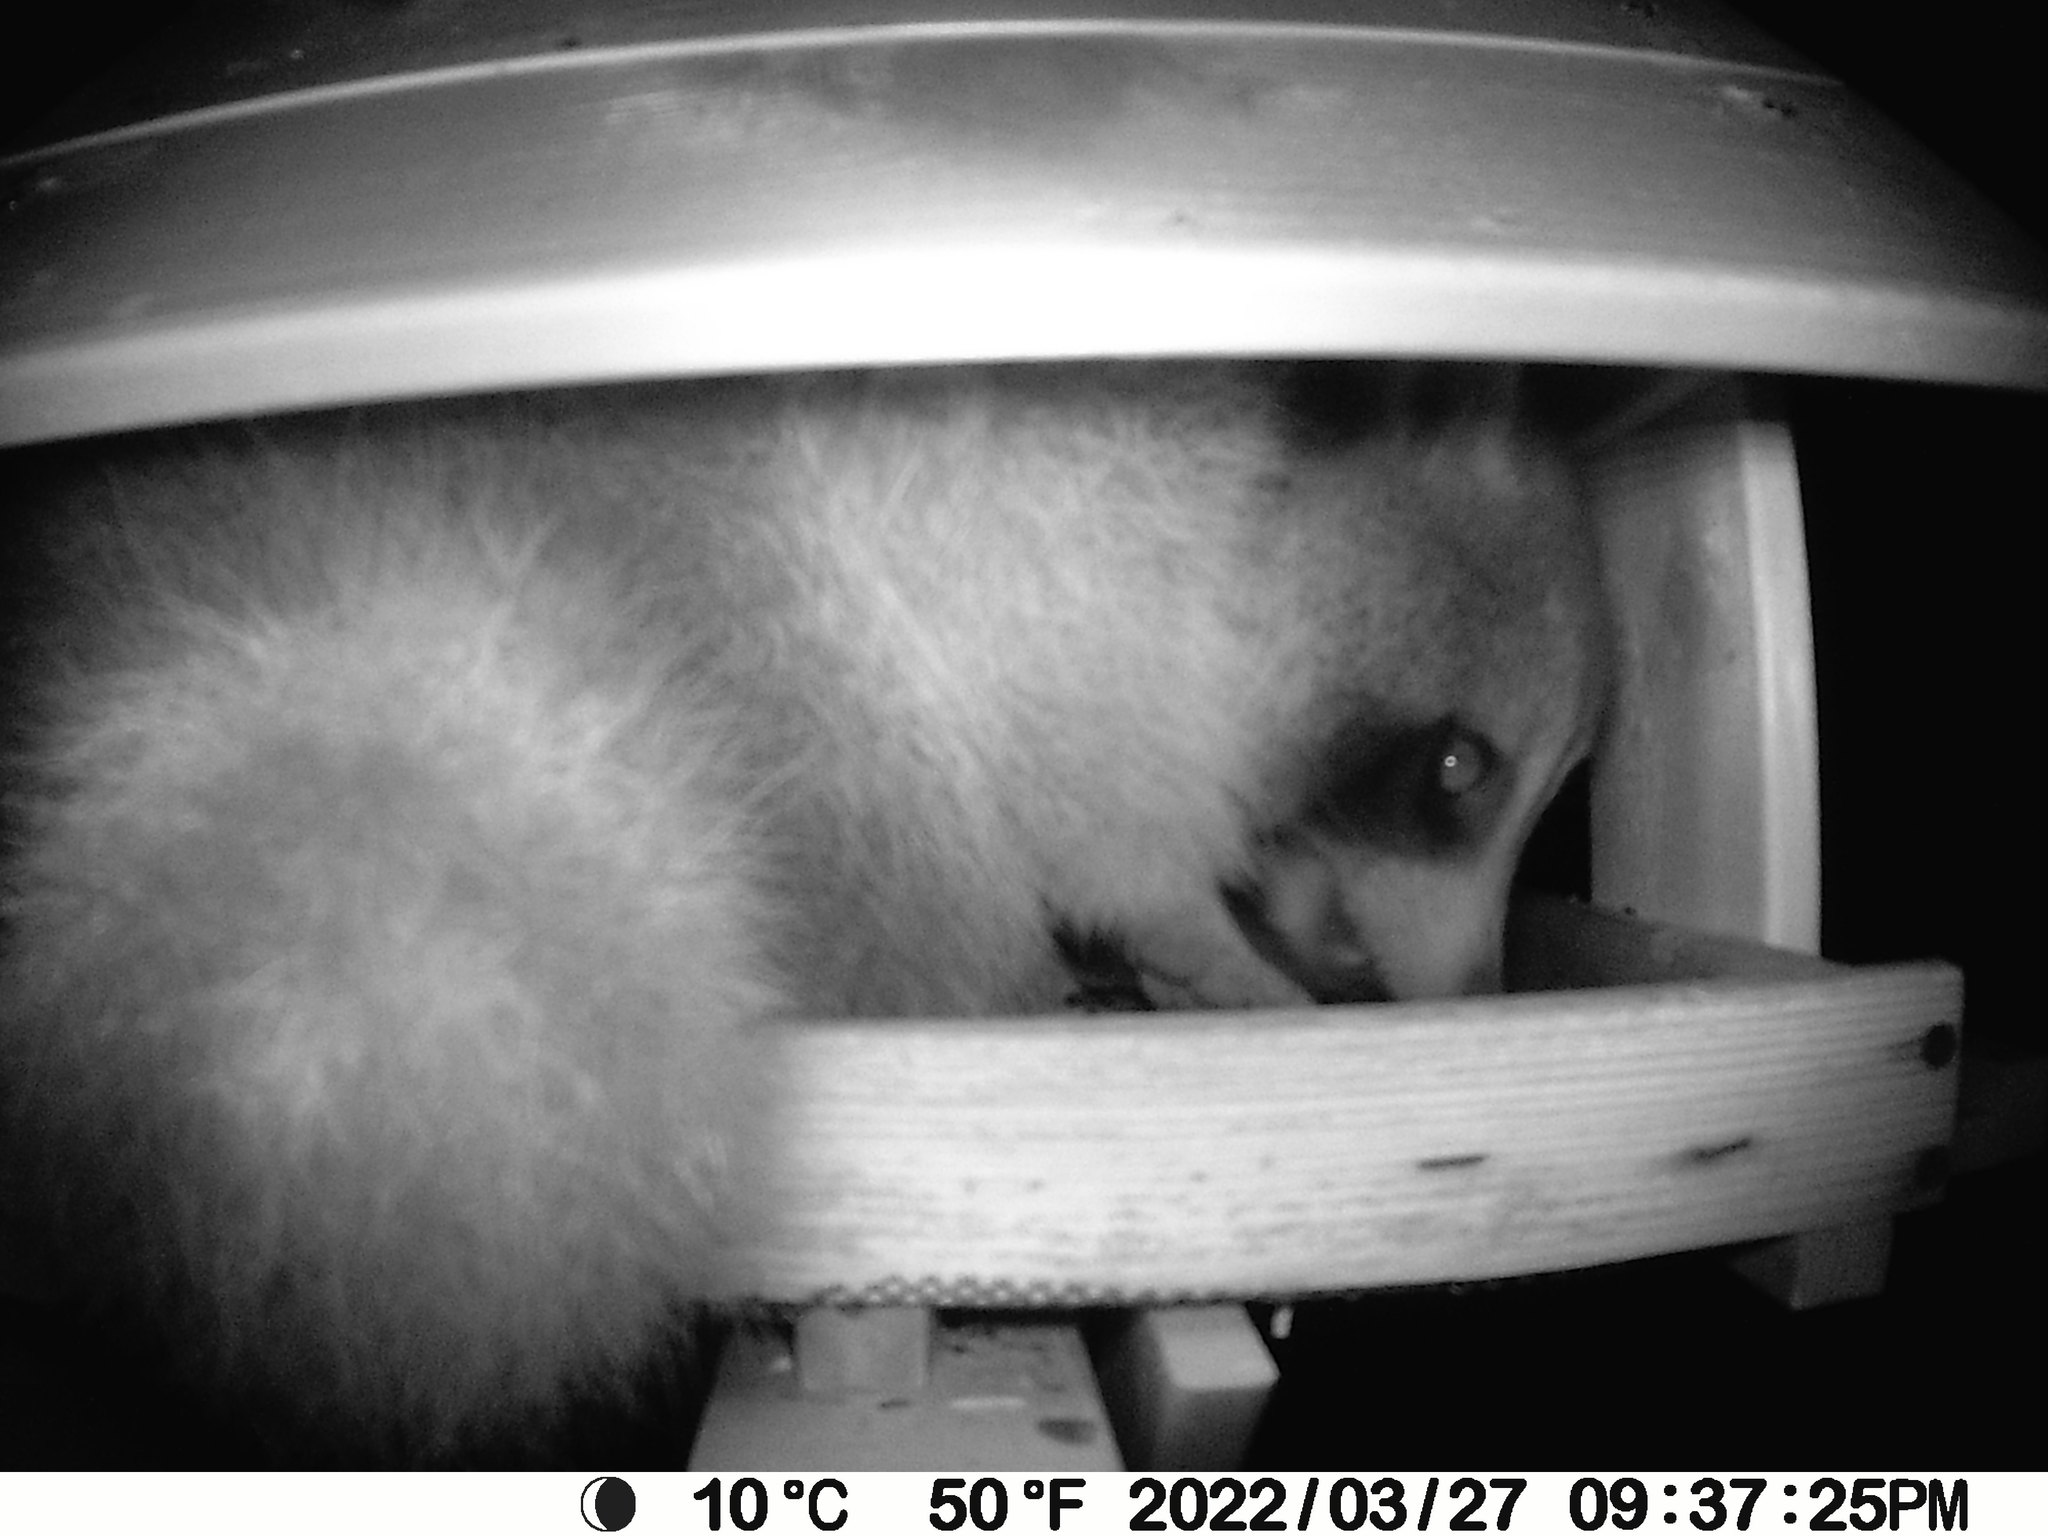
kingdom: Animalia
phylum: Chordata
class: Mammalia
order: Carnivora
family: Procyonidae
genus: Procyon
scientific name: Procyon lotor
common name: Raccoon
